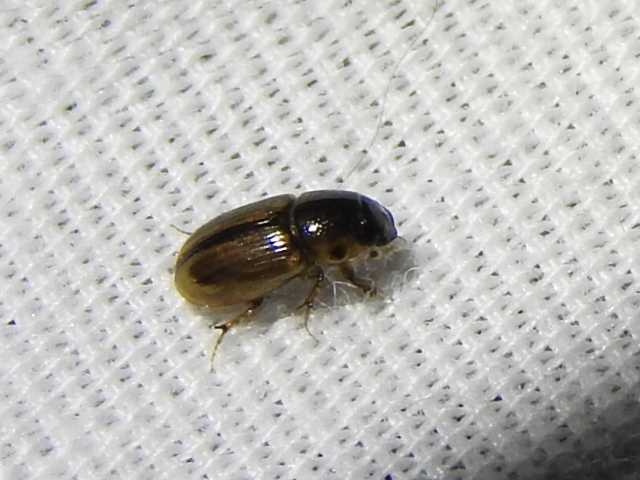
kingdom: Animalia
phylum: Arthropoda
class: Insecta
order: Coleoptera
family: Scarabaeidae
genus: Labarrus
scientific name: Labarrus lividus
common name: Scarab beetle
